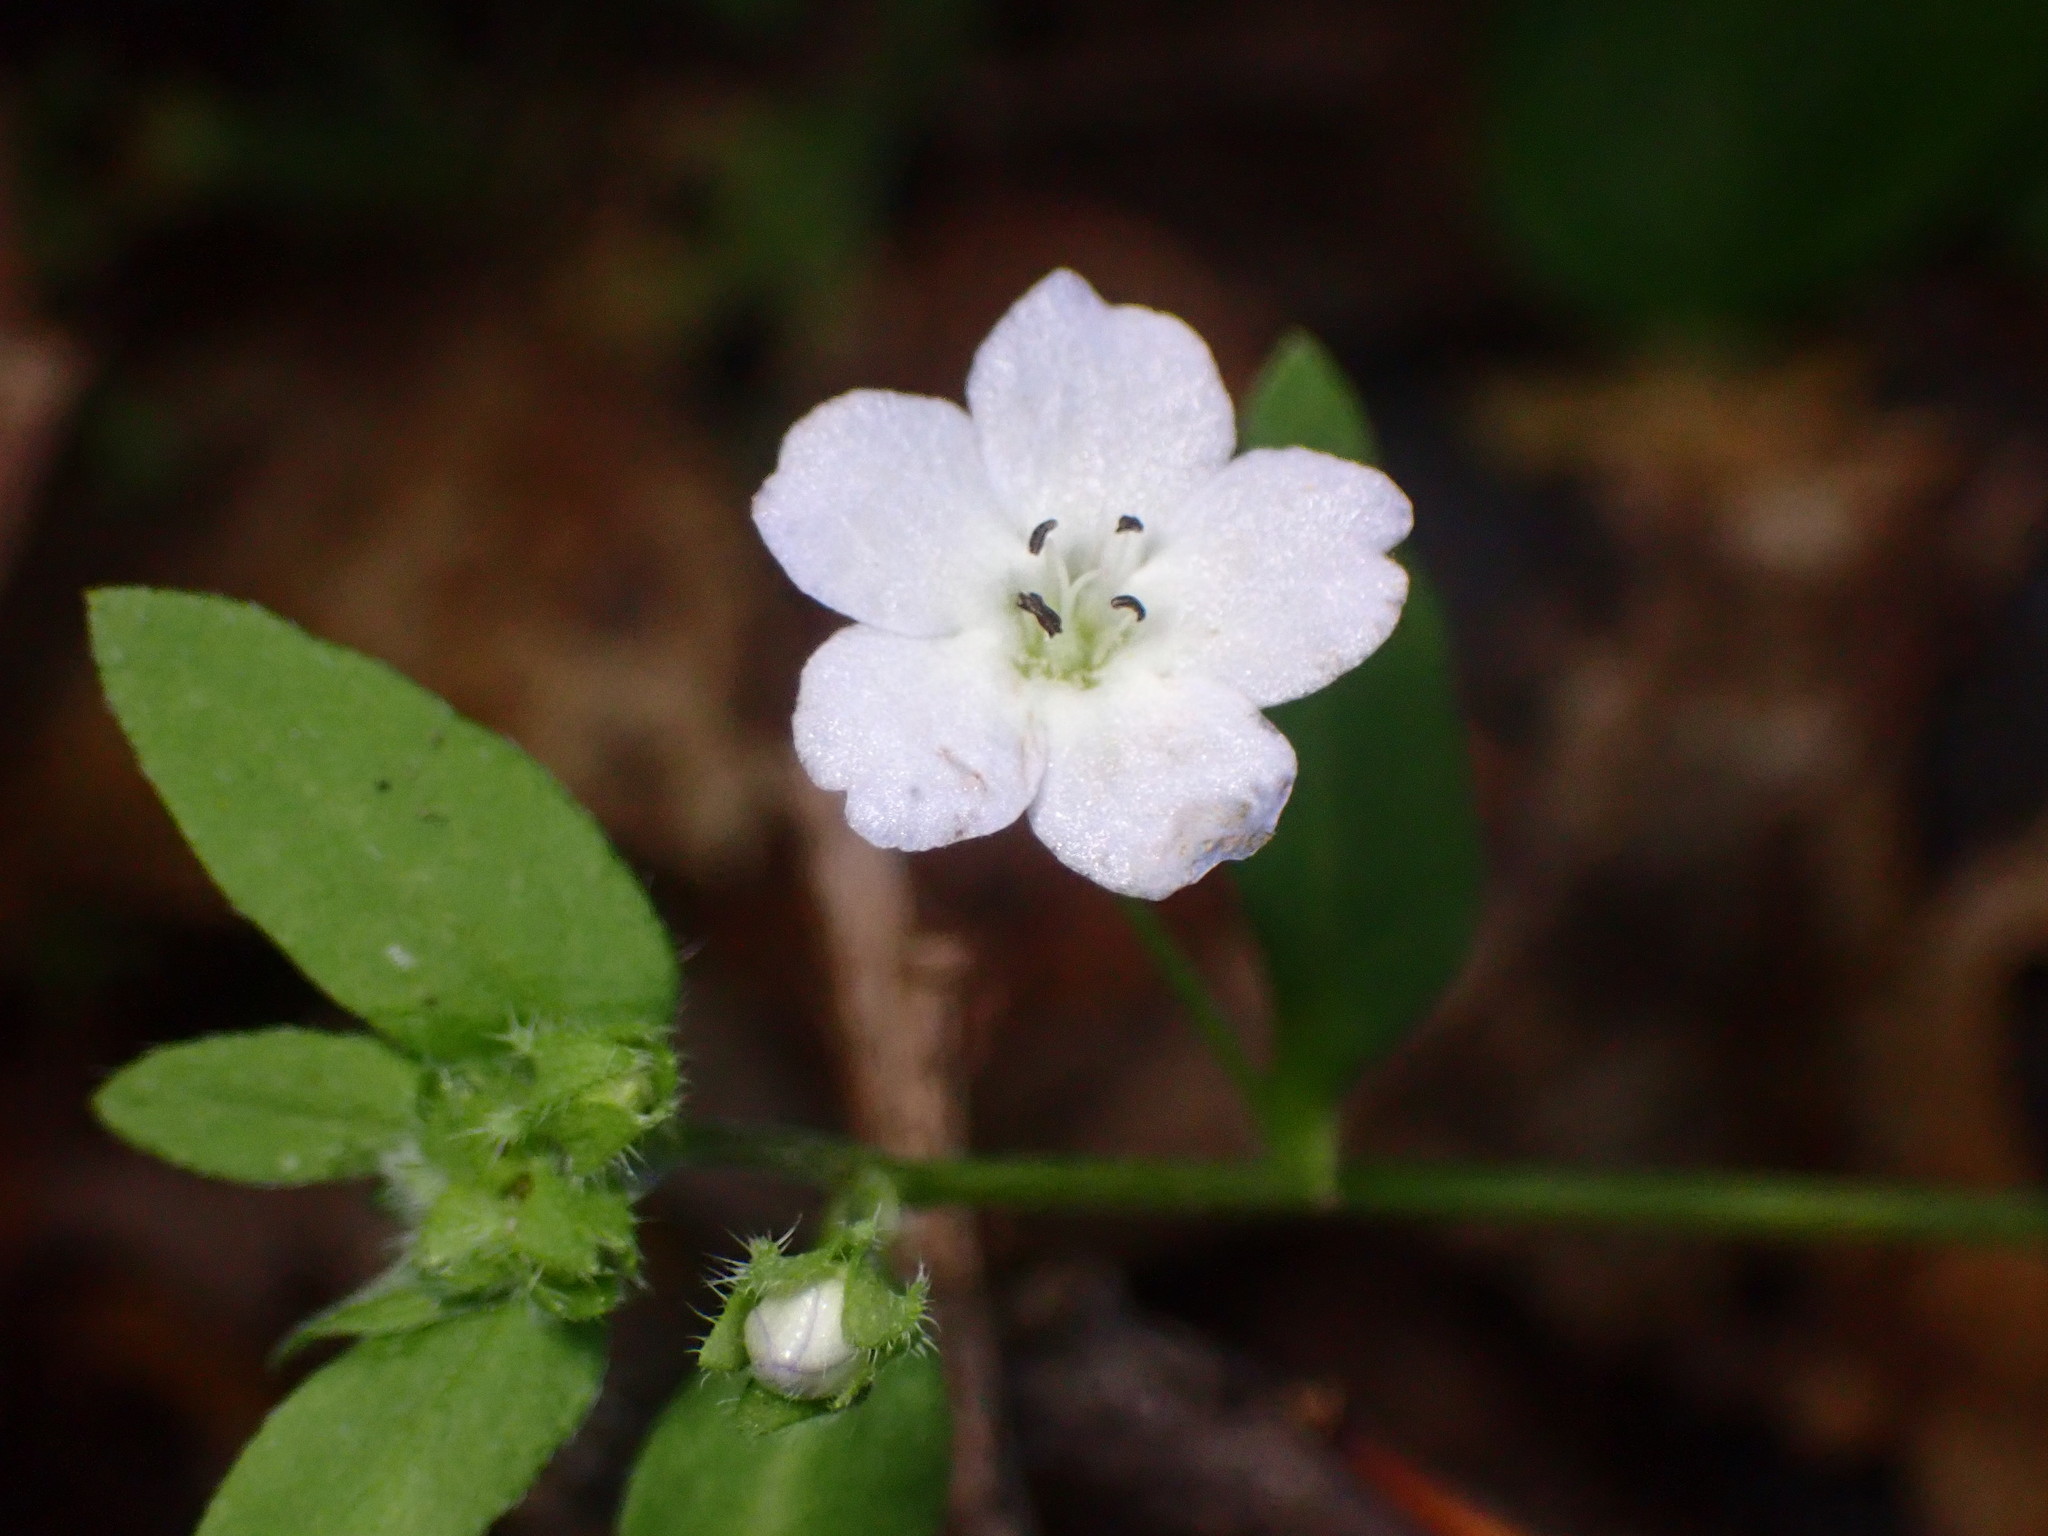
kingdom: Plantae
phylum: Tracheophyta
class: Magnoliopsida
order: Boraginales
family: Hydrophyllaceae
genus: Nemophila
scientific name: Nemophila heterophylla
